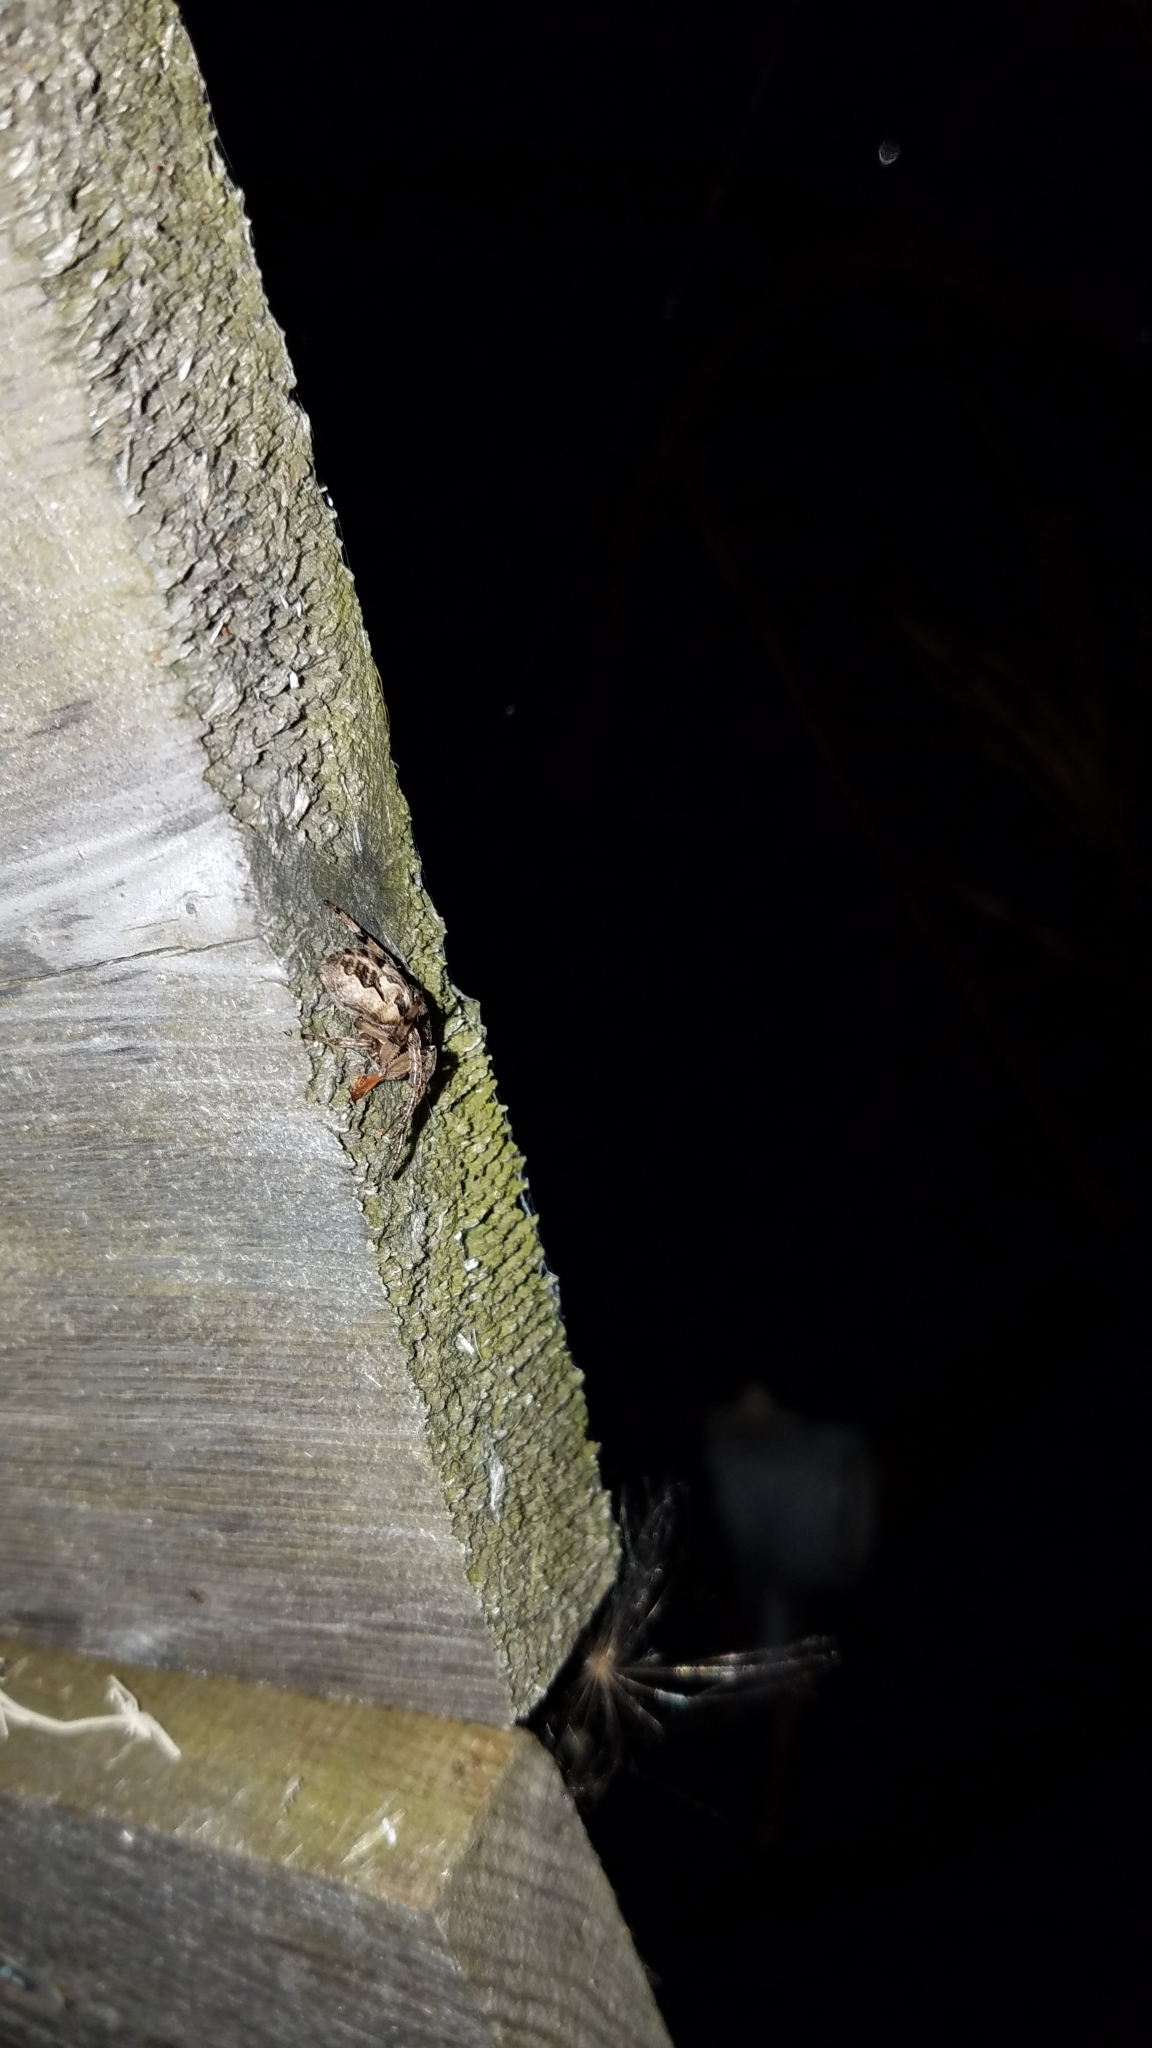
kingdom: Animalia
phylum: Arthropoda
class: Arachnida
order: Araneae
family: Araneidae
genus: Larinioides
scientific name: Larinioides cornutus
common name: Furrow orbweaver
